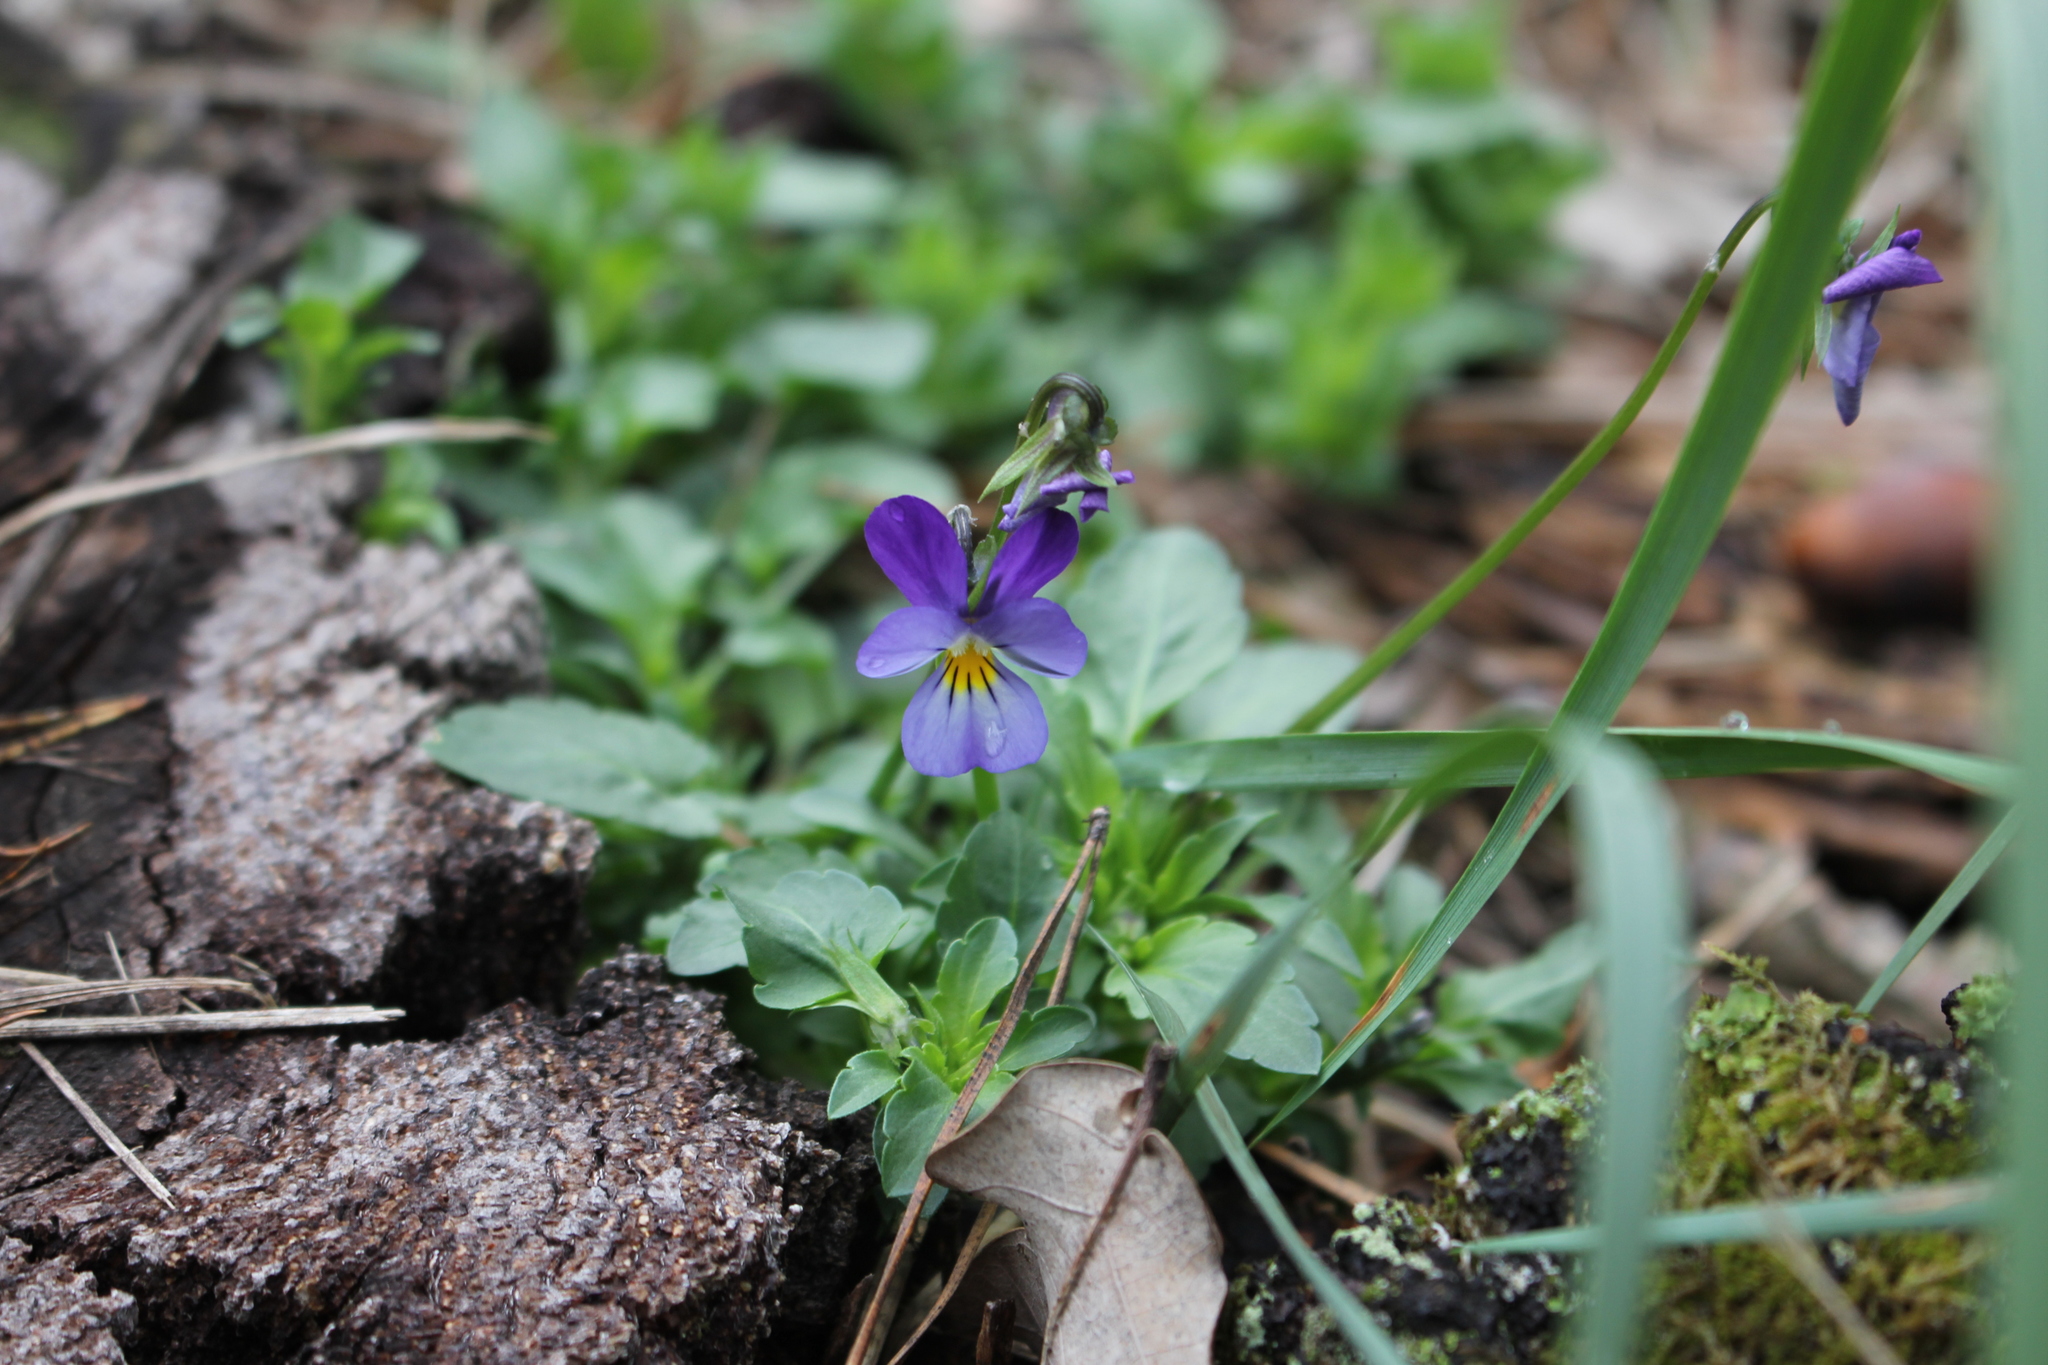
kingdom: Plantae
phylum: Tracheophyta
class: Magnoliopsida
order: Malpighiales
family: Violaceae
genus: Viola
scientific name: Viola tricolor
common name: Pansy
